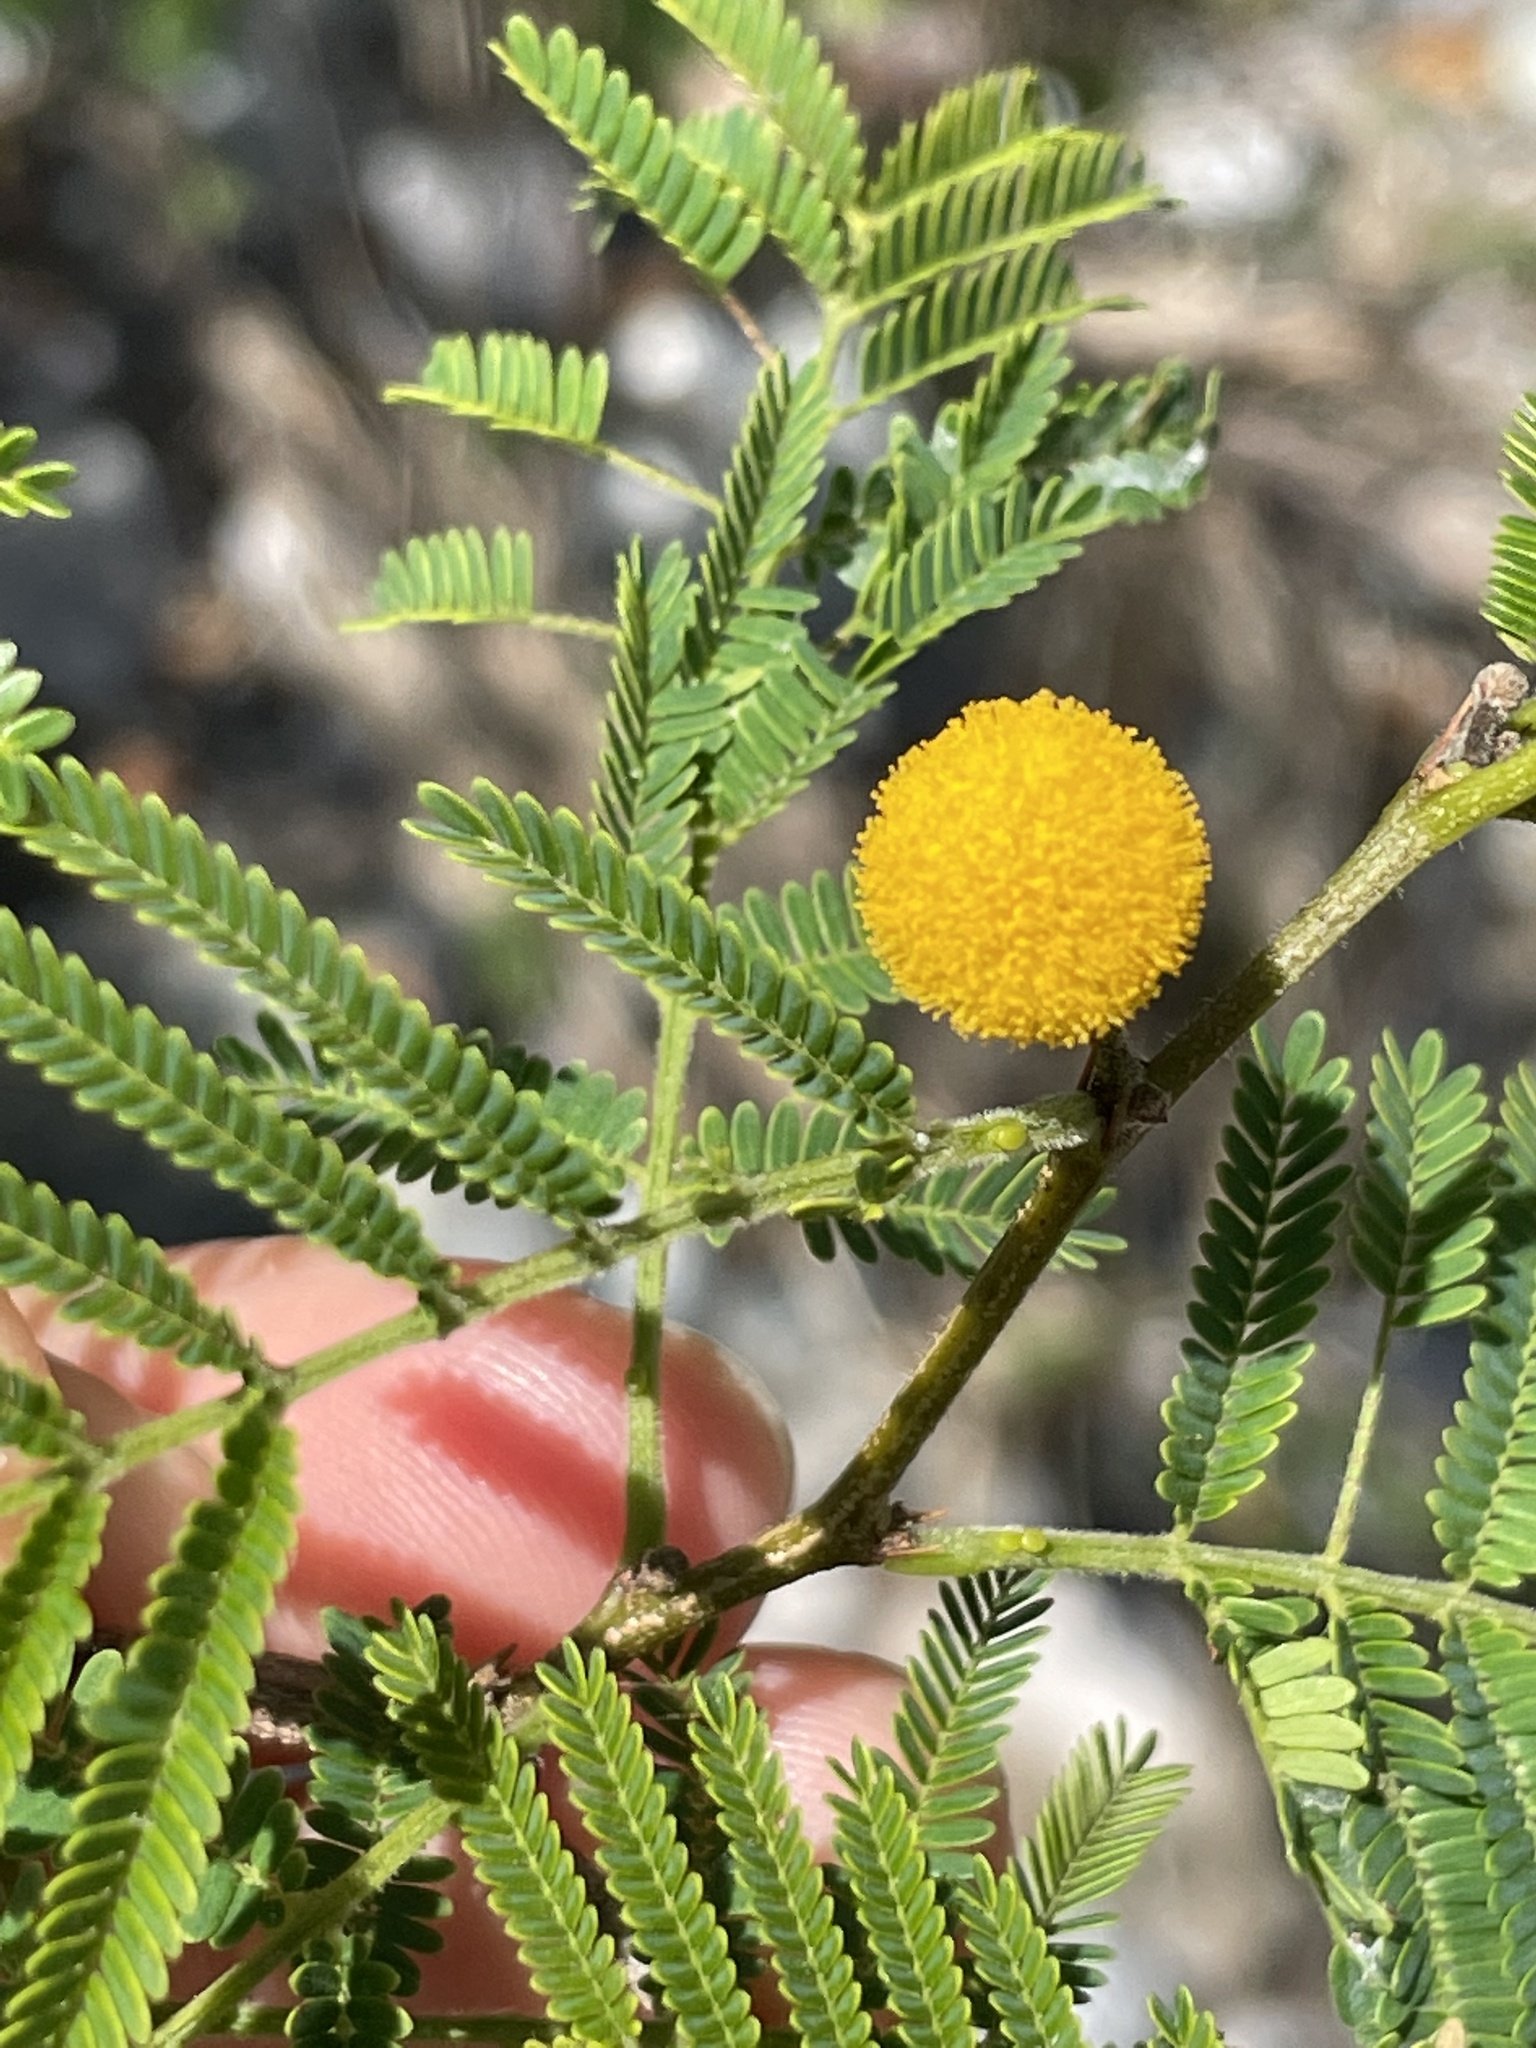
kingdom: Plantae
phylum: Tracheophyta
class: Magnoliopsida
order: Fabales
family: Fabaceae
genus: Vachellia
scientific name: Vachellia macracantha
